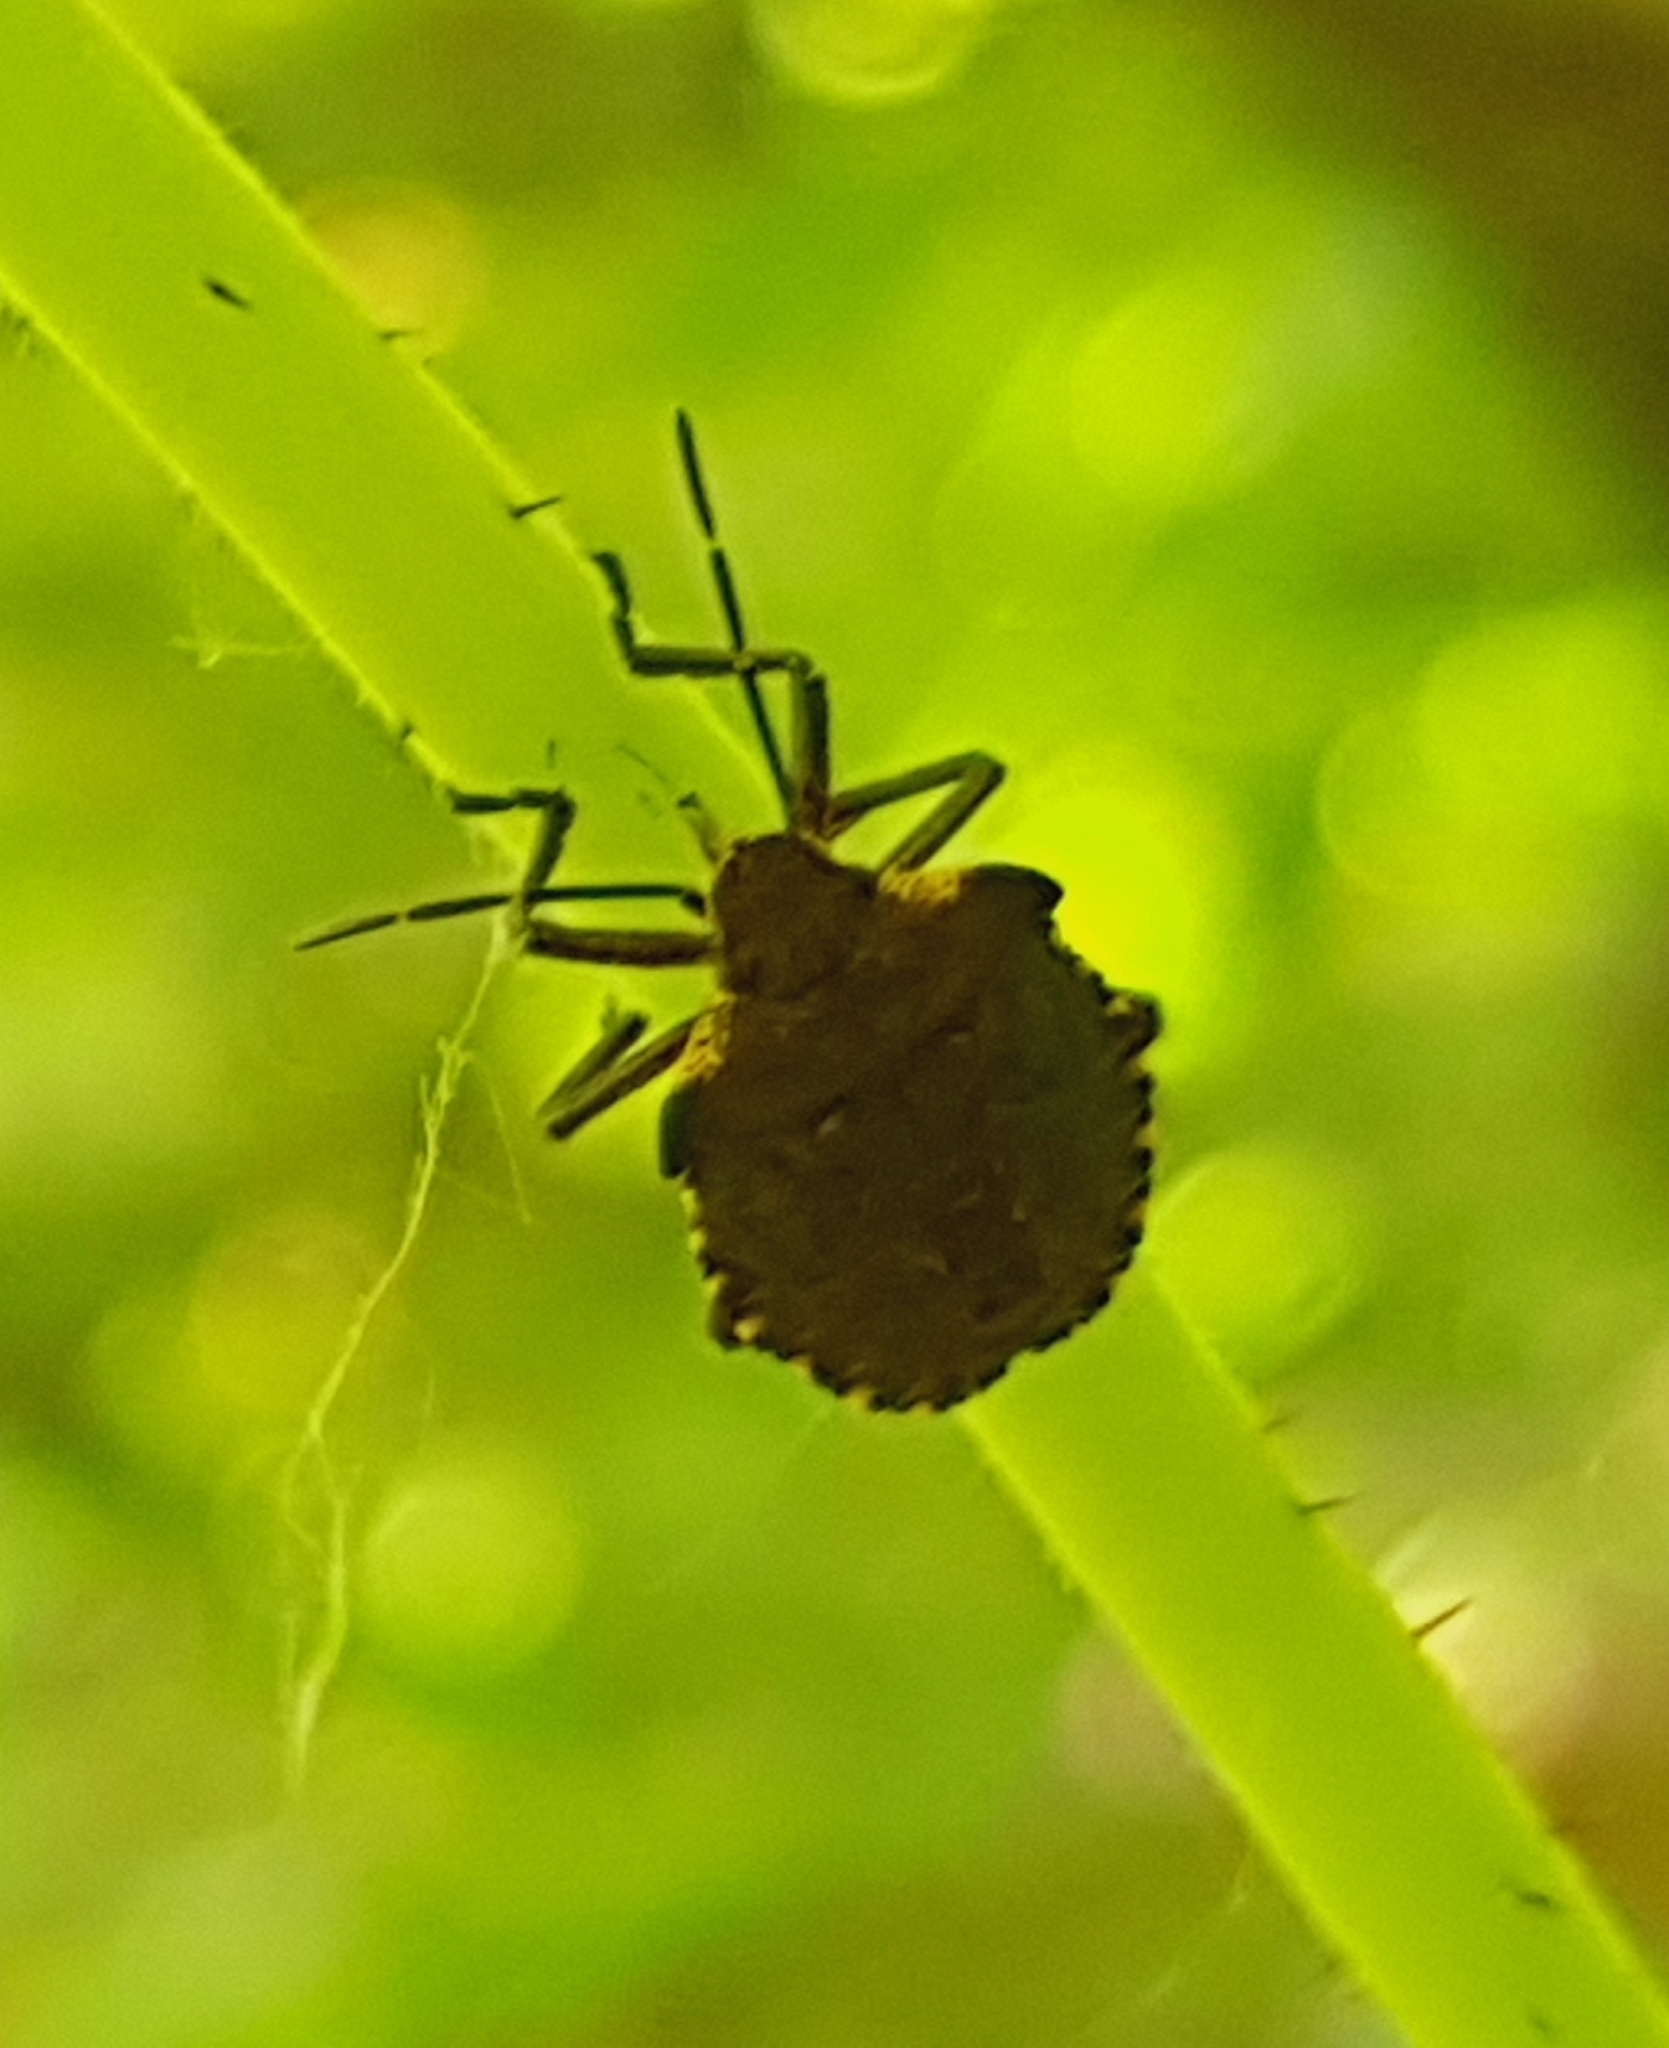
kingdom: Animalia
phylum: Arthropoda
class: Insecta
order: Hemiptera
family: Pentatomidae
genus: Pentatoma
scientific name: Pentatoma rufipes
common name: Forest bug
